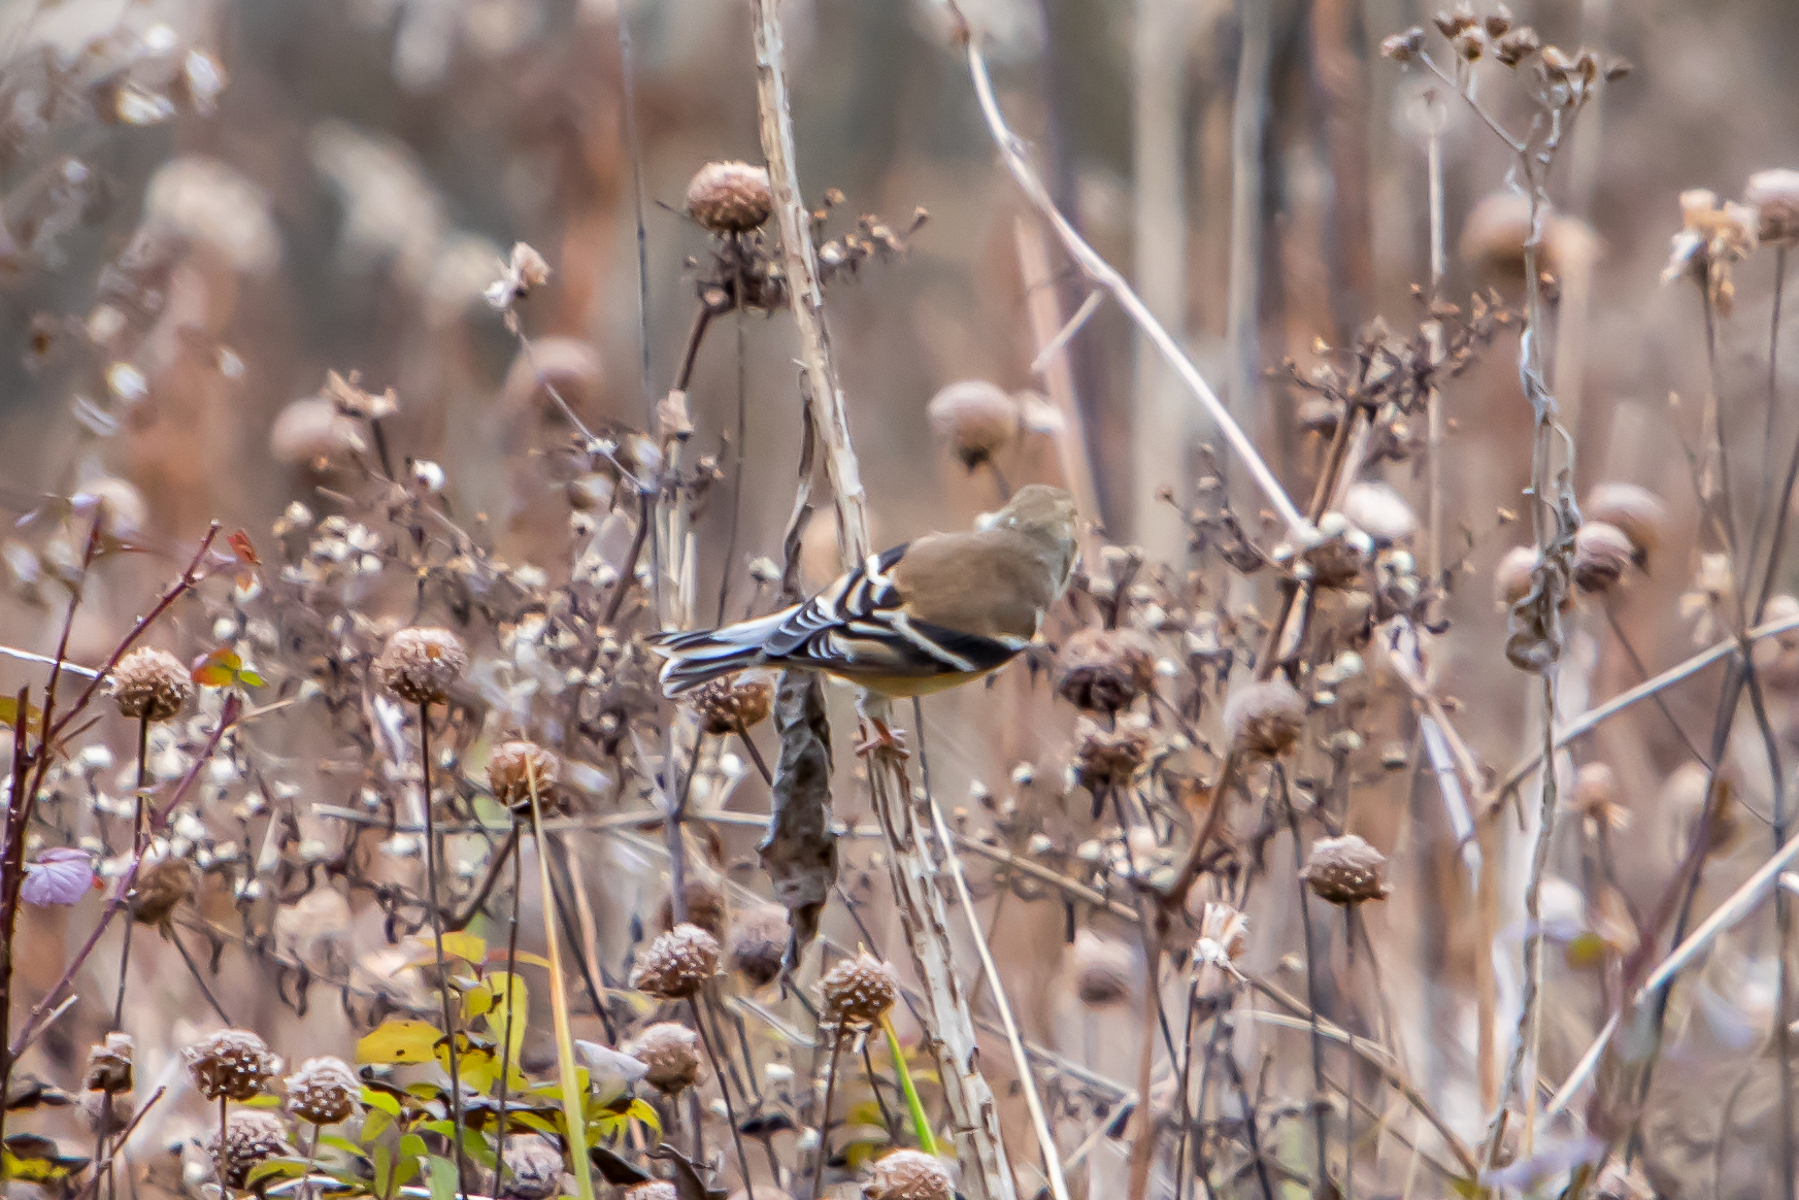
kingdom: Animalia
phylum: Chordata
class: Aves
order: Passeriformes
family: Fringillidae
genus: Spinus
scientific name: Spinus tristis
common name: American goldfinch
